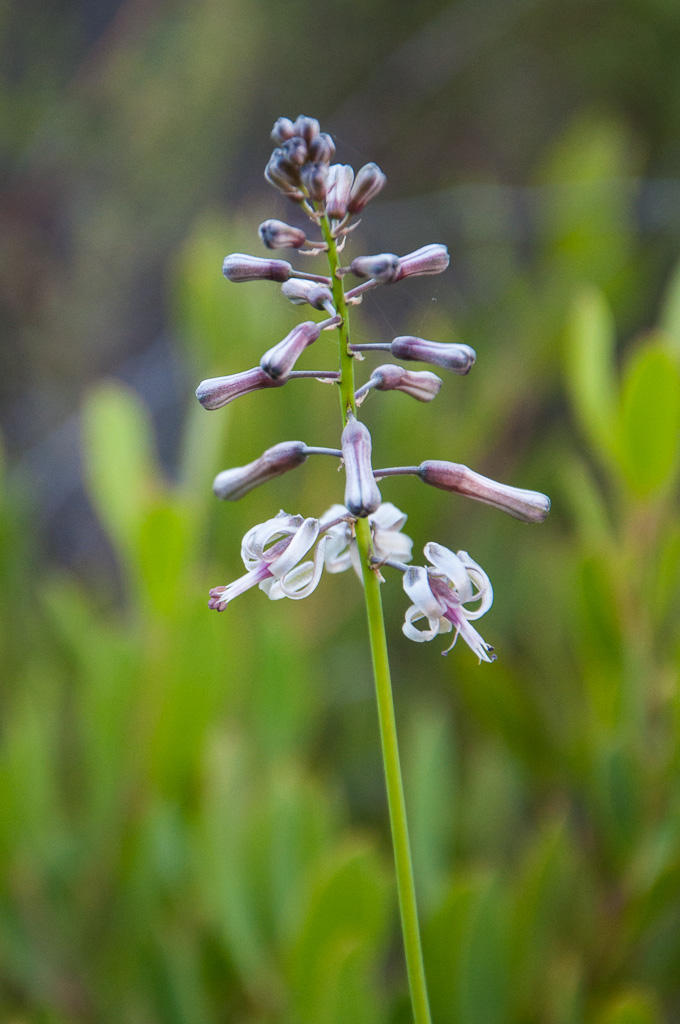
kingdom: Plantae
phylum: Tracheophyta
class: Liliopsida
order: Asparagales
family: Asparagaceae
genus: Drimia
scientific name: Drimia media
